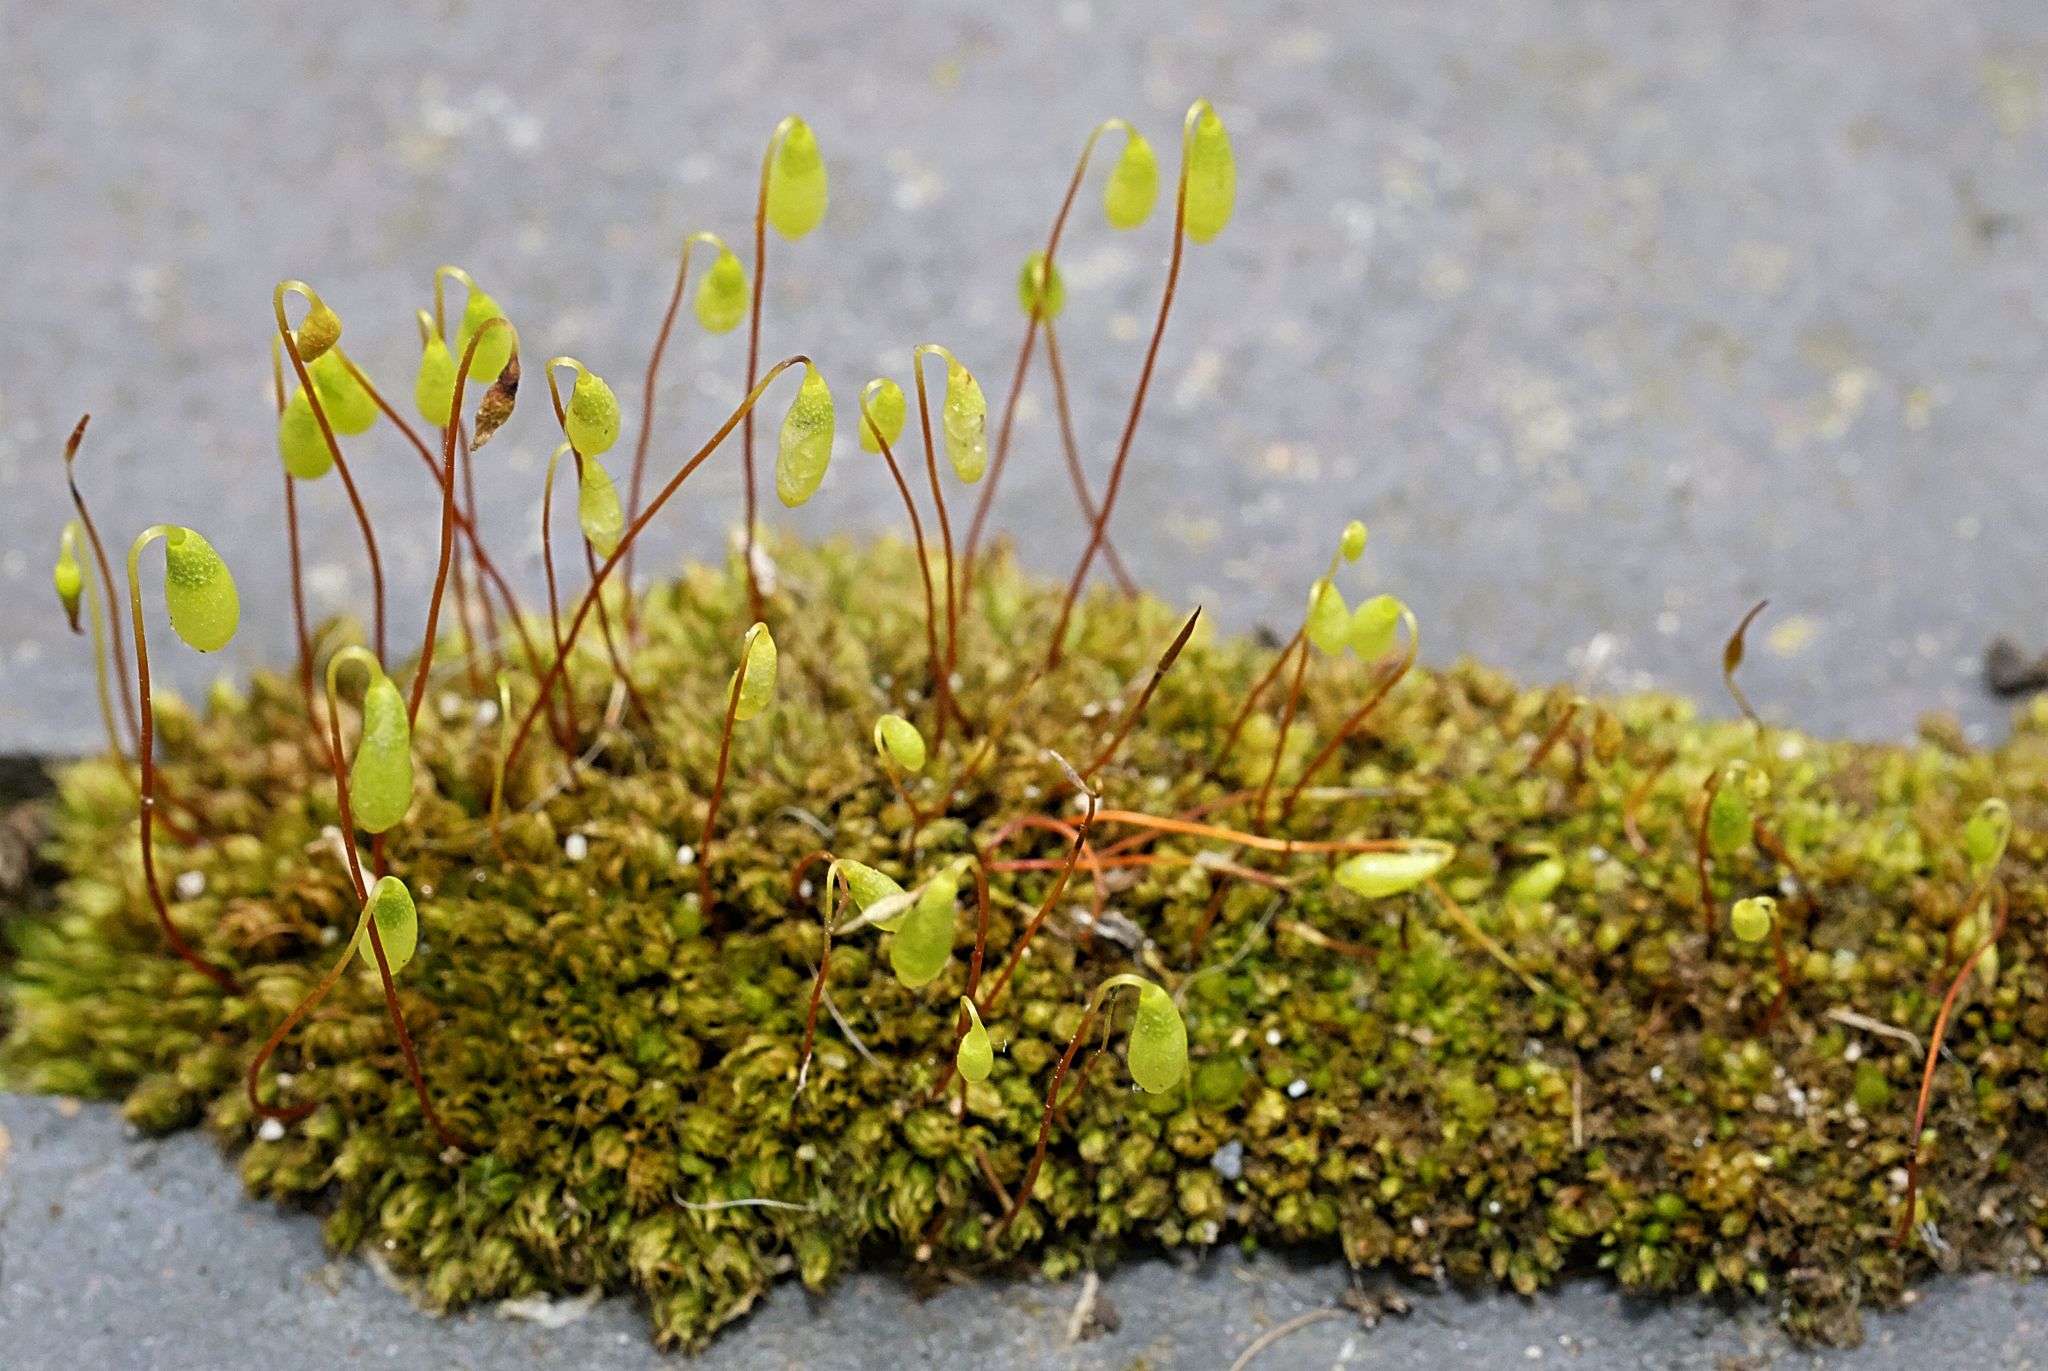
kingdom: Plantae
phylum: Bryophyta
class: Bryopsida
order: Bryales
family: Bryaceae
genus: Rosulabryum
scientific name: Rosulabryum capillare
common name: Capillary thread-moss
